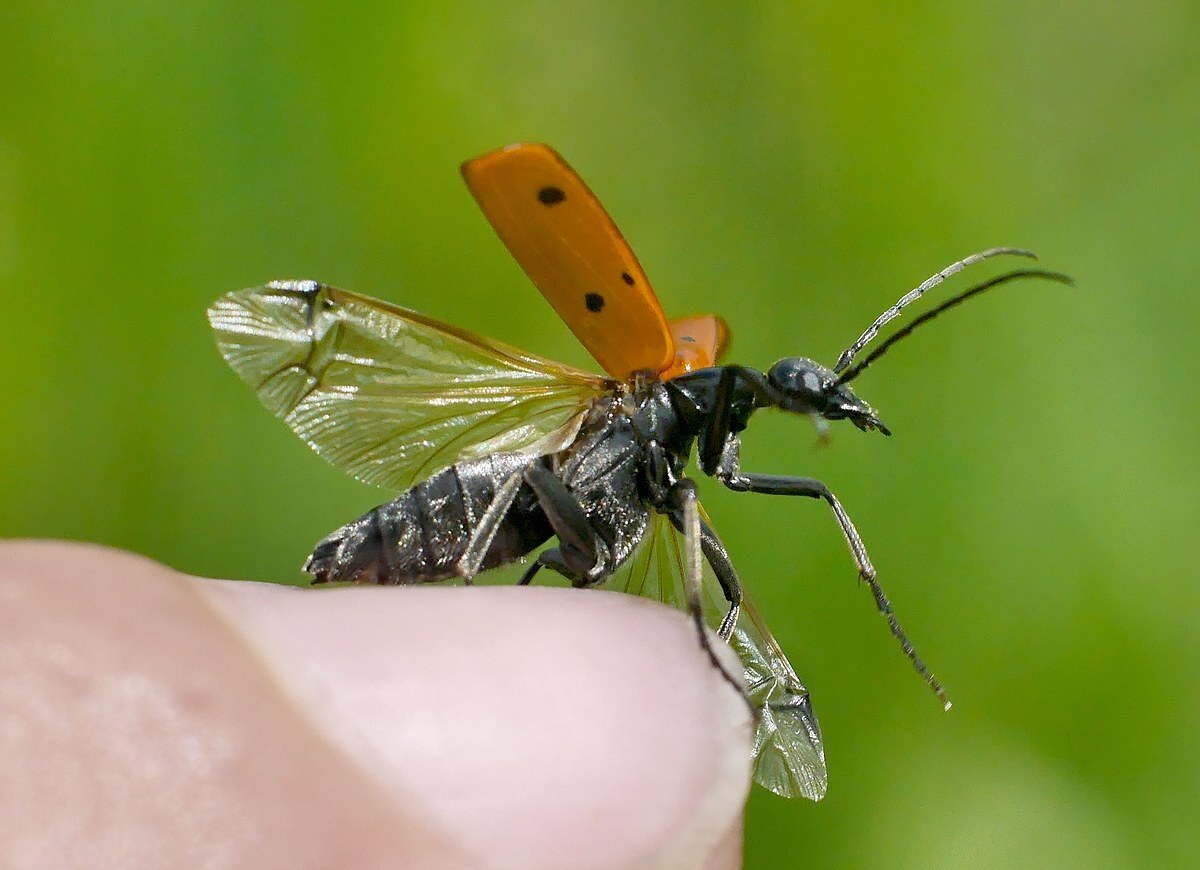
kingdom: Animalia
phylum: Arthropoda
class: Insecta
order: Coleoptera
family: Meloidae
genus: Stenodera
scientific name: Stenodera caucasica
